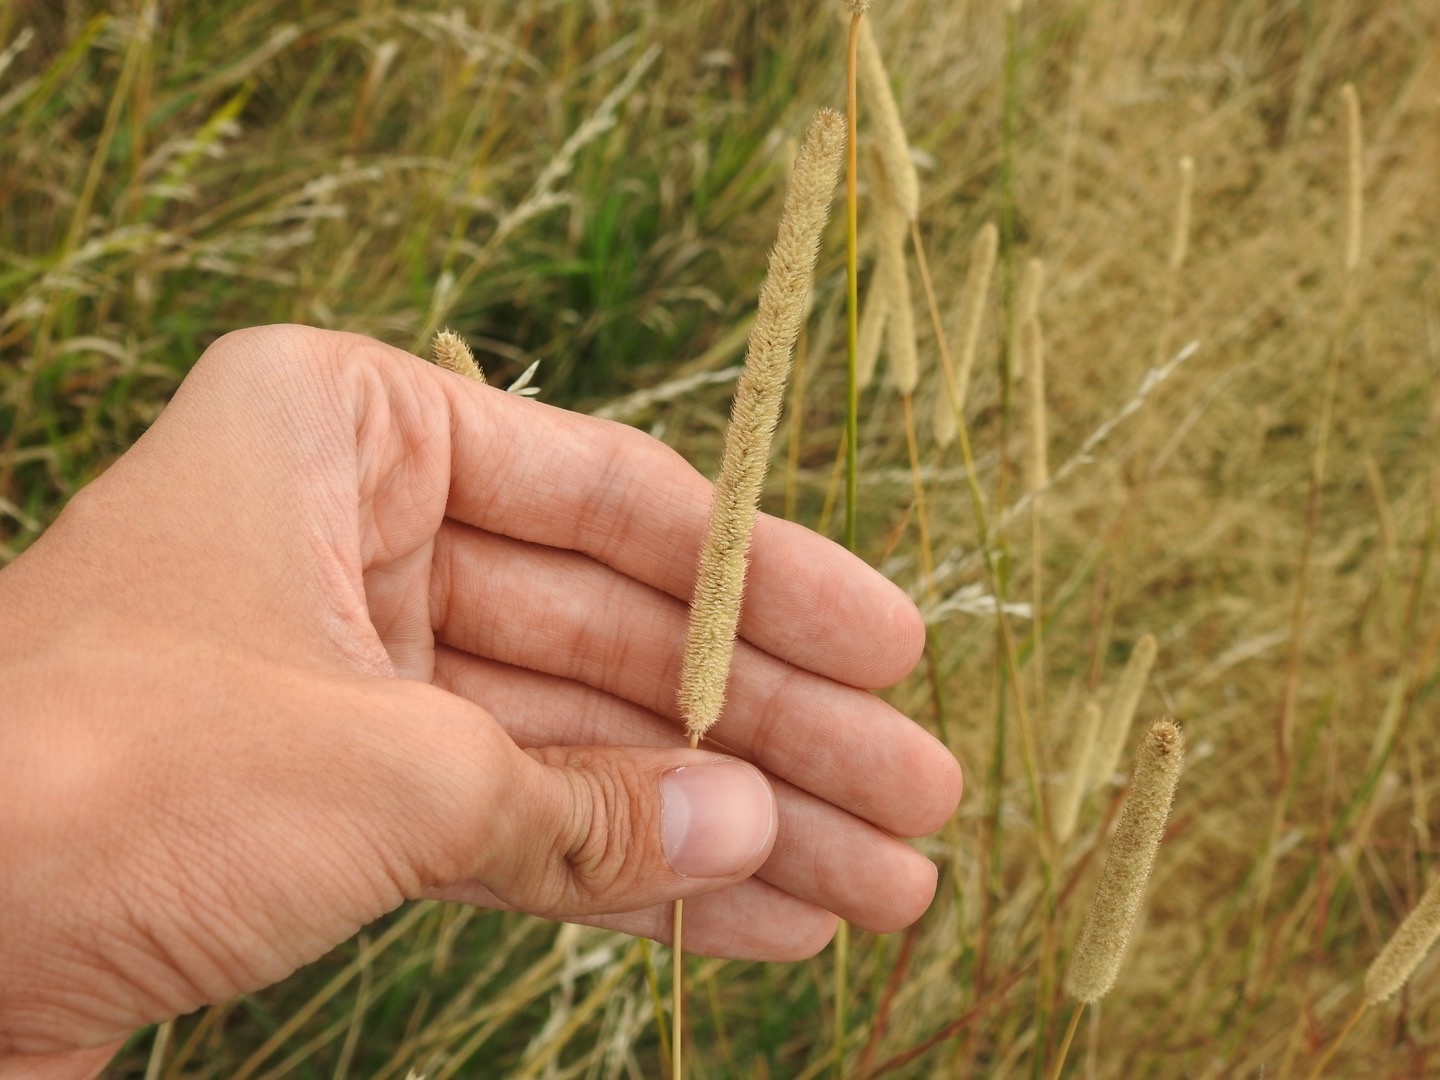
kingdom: Plantae
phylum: Tracheophyta
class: Liliopsida
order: Poales
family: Poaceae
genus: Phleum
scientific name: Phleum pratense
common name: Timothy grass
